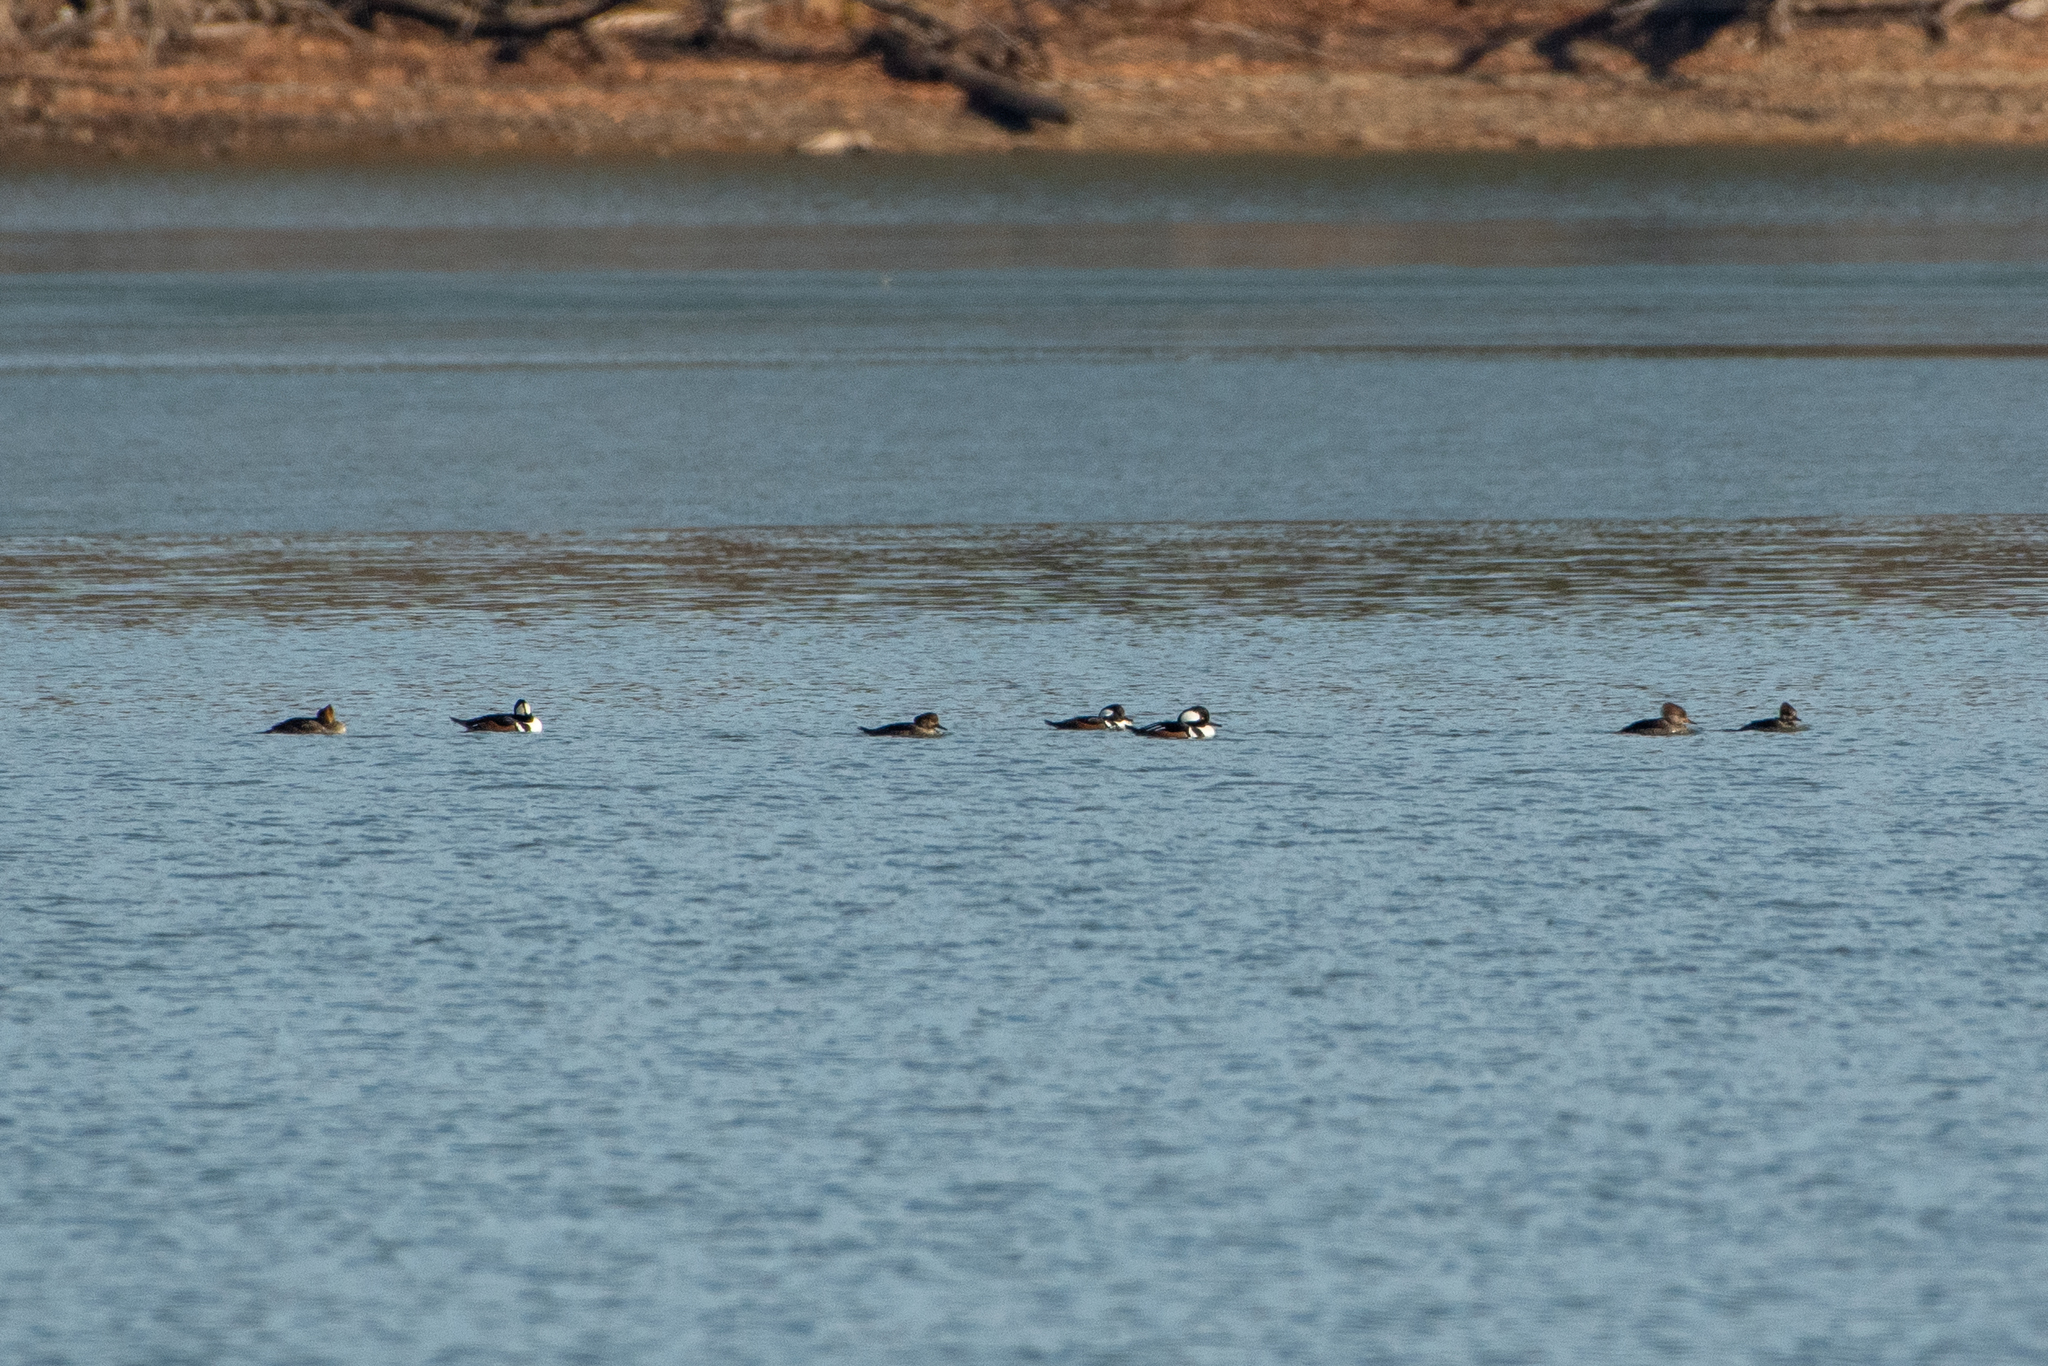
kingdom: Animalia
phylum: Chordata
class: Aves
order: Anseriformes
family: Anatidae
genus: Lophodytes
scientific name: Lophodytes cucullatus
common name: Hooded merganser
